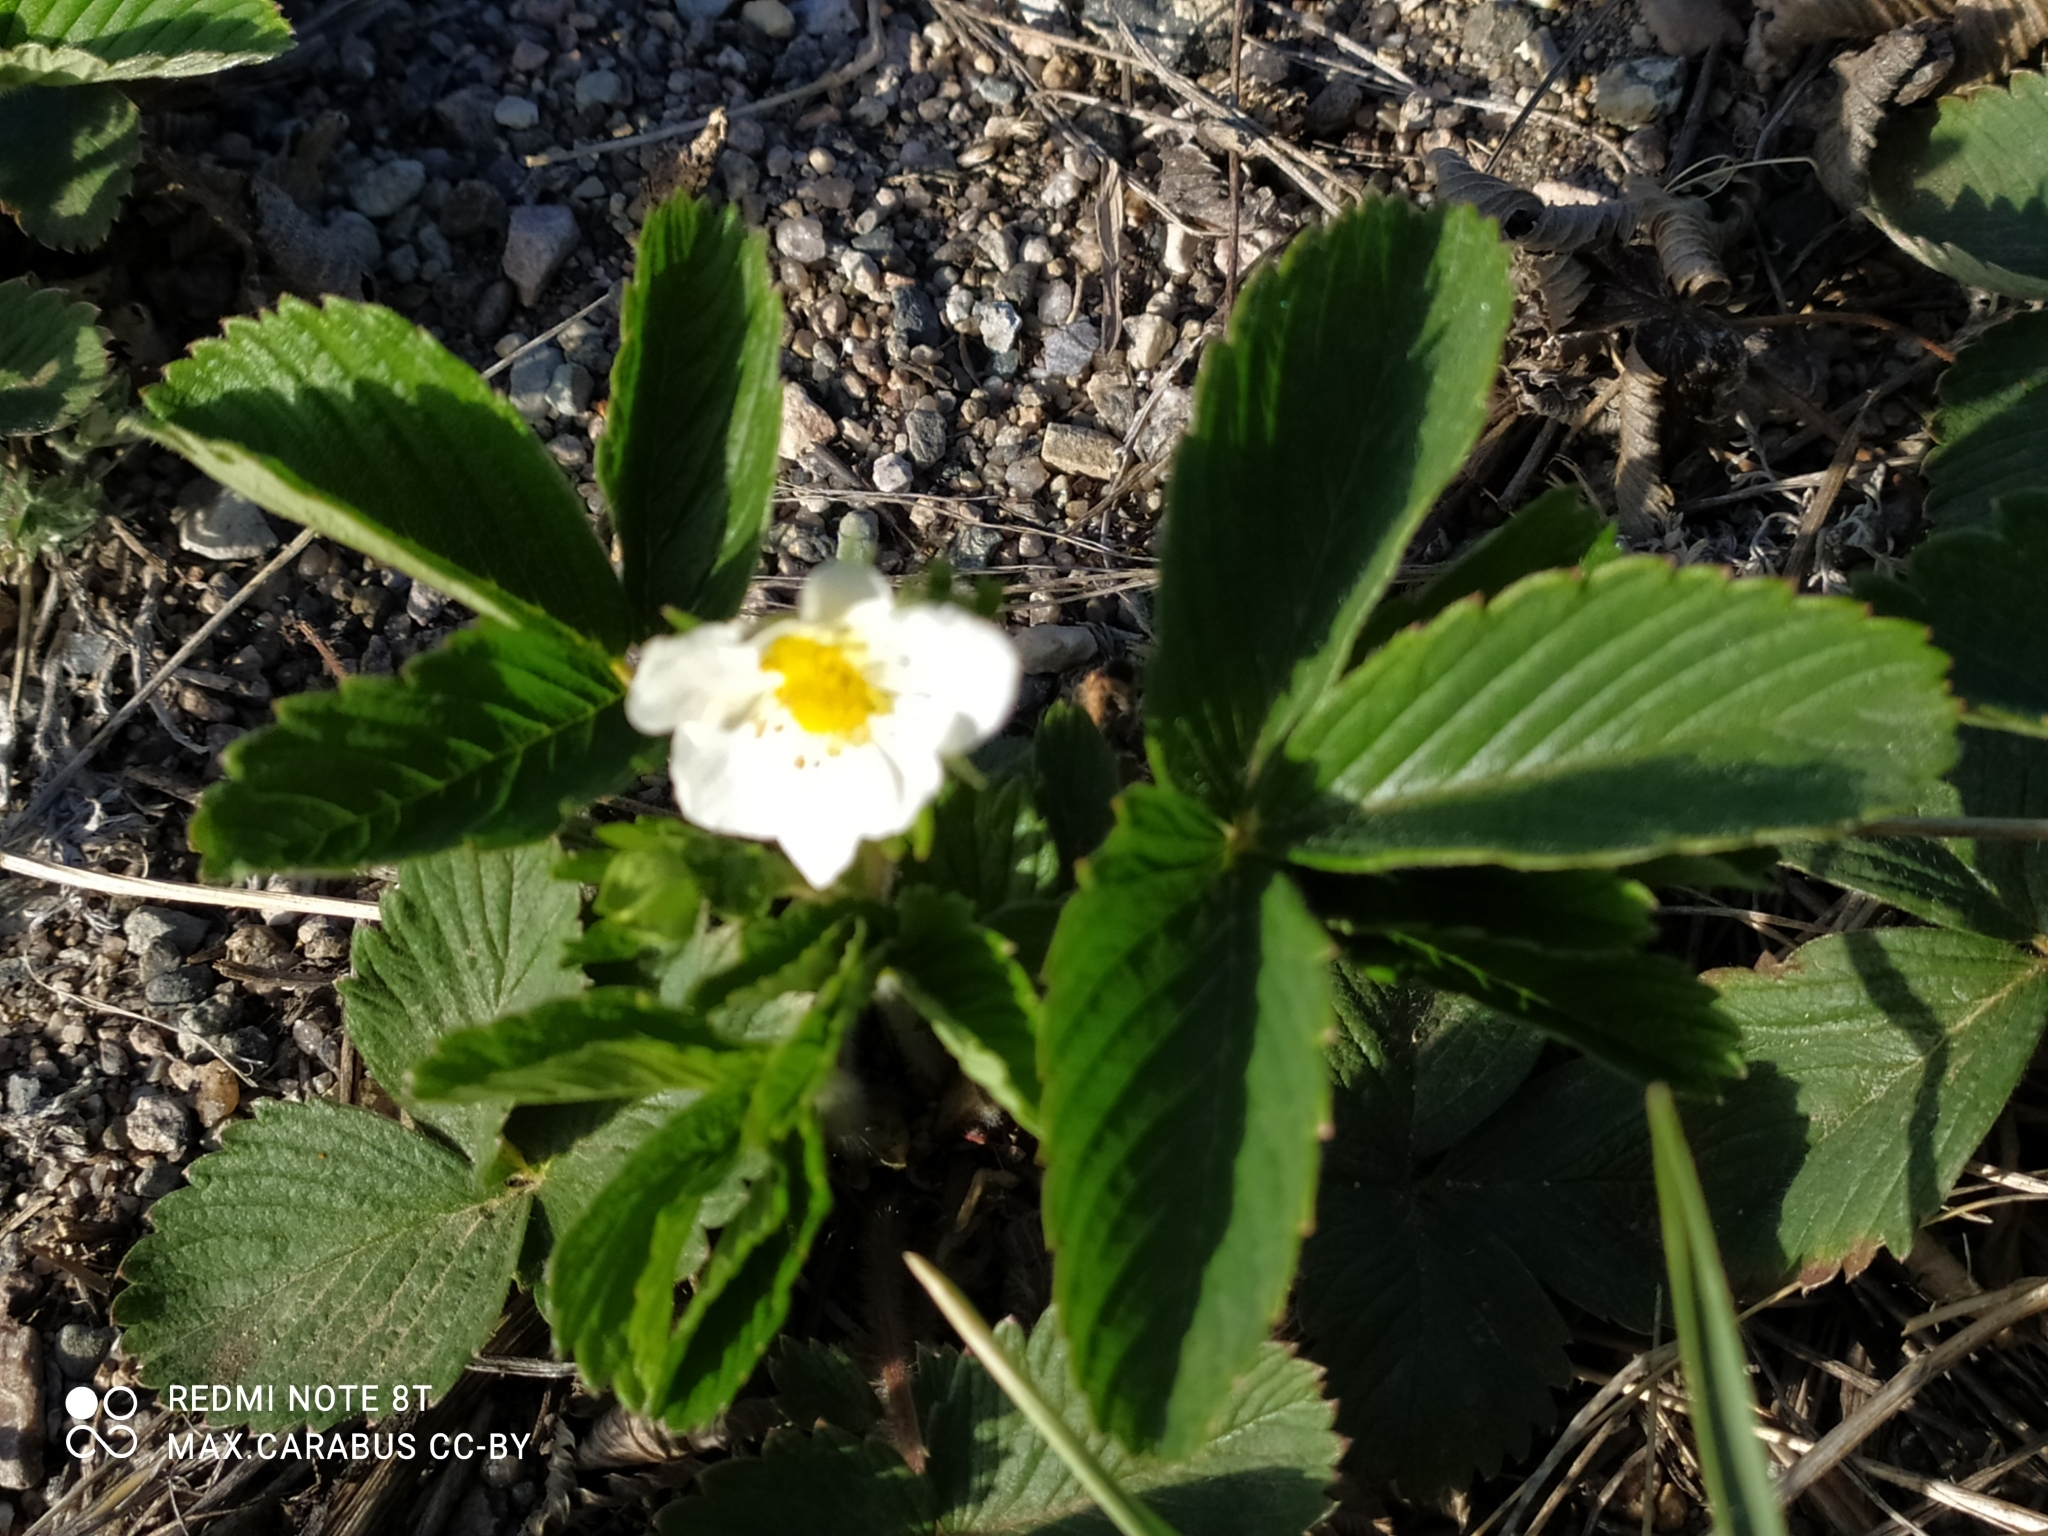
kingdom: Plantae
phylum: Tracheophyta
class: Magnoliopsida
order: Rosales
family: Rosaceae
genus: Fragaria
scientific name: Fragaria viridis
